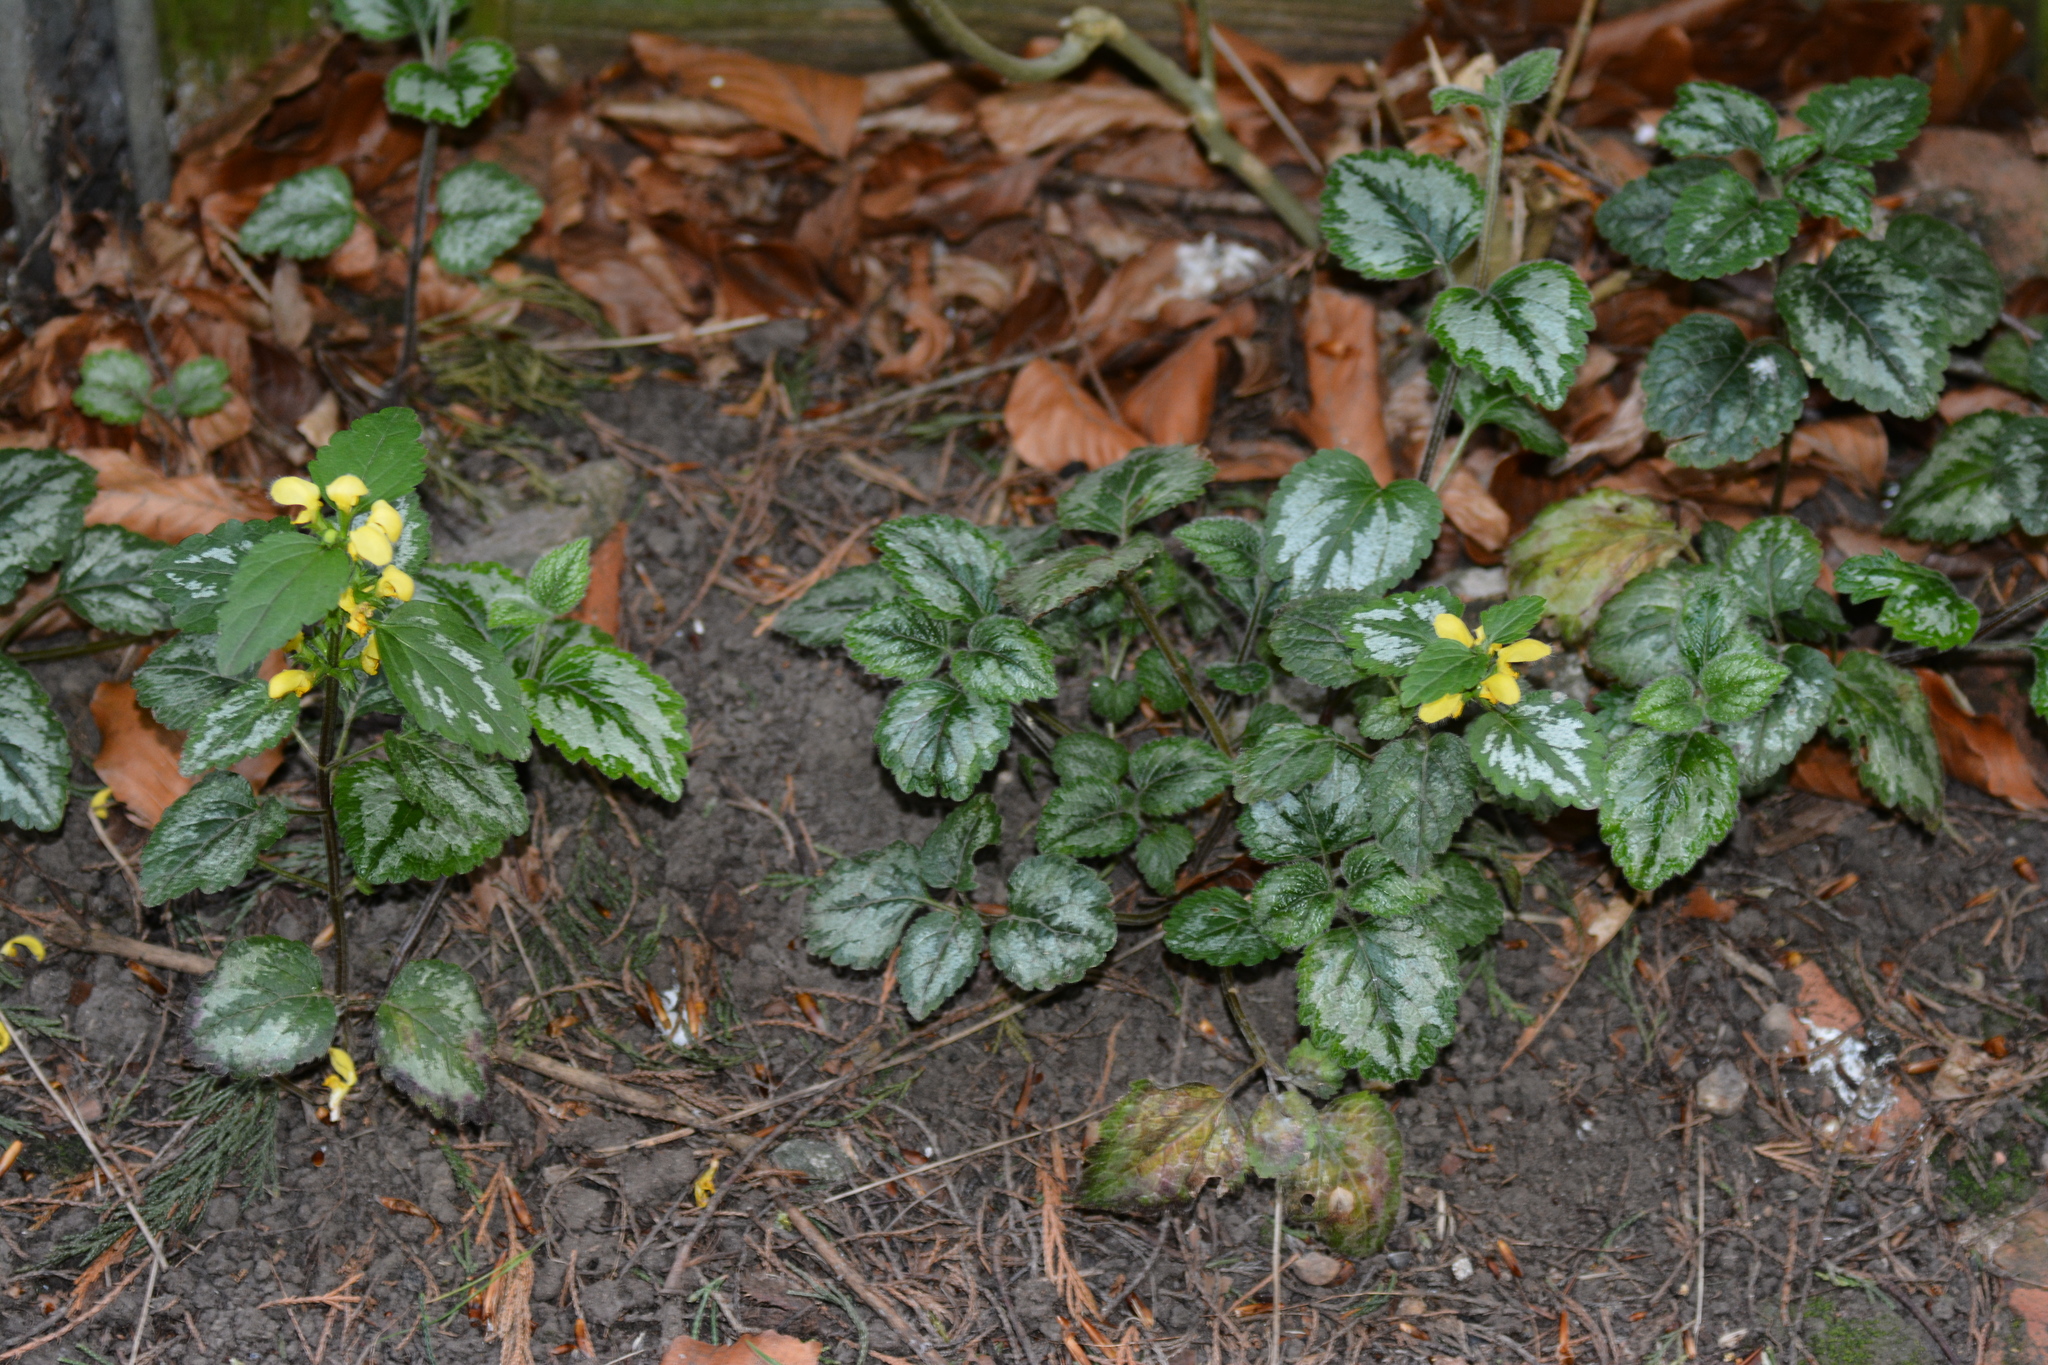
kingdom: Plantae
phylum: Tracheophyta
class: Magnoliopsida
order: Lamiales
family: Lamiaceae
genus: Lamium
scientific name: Lamium galeobdolon
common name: Yellow archangel
